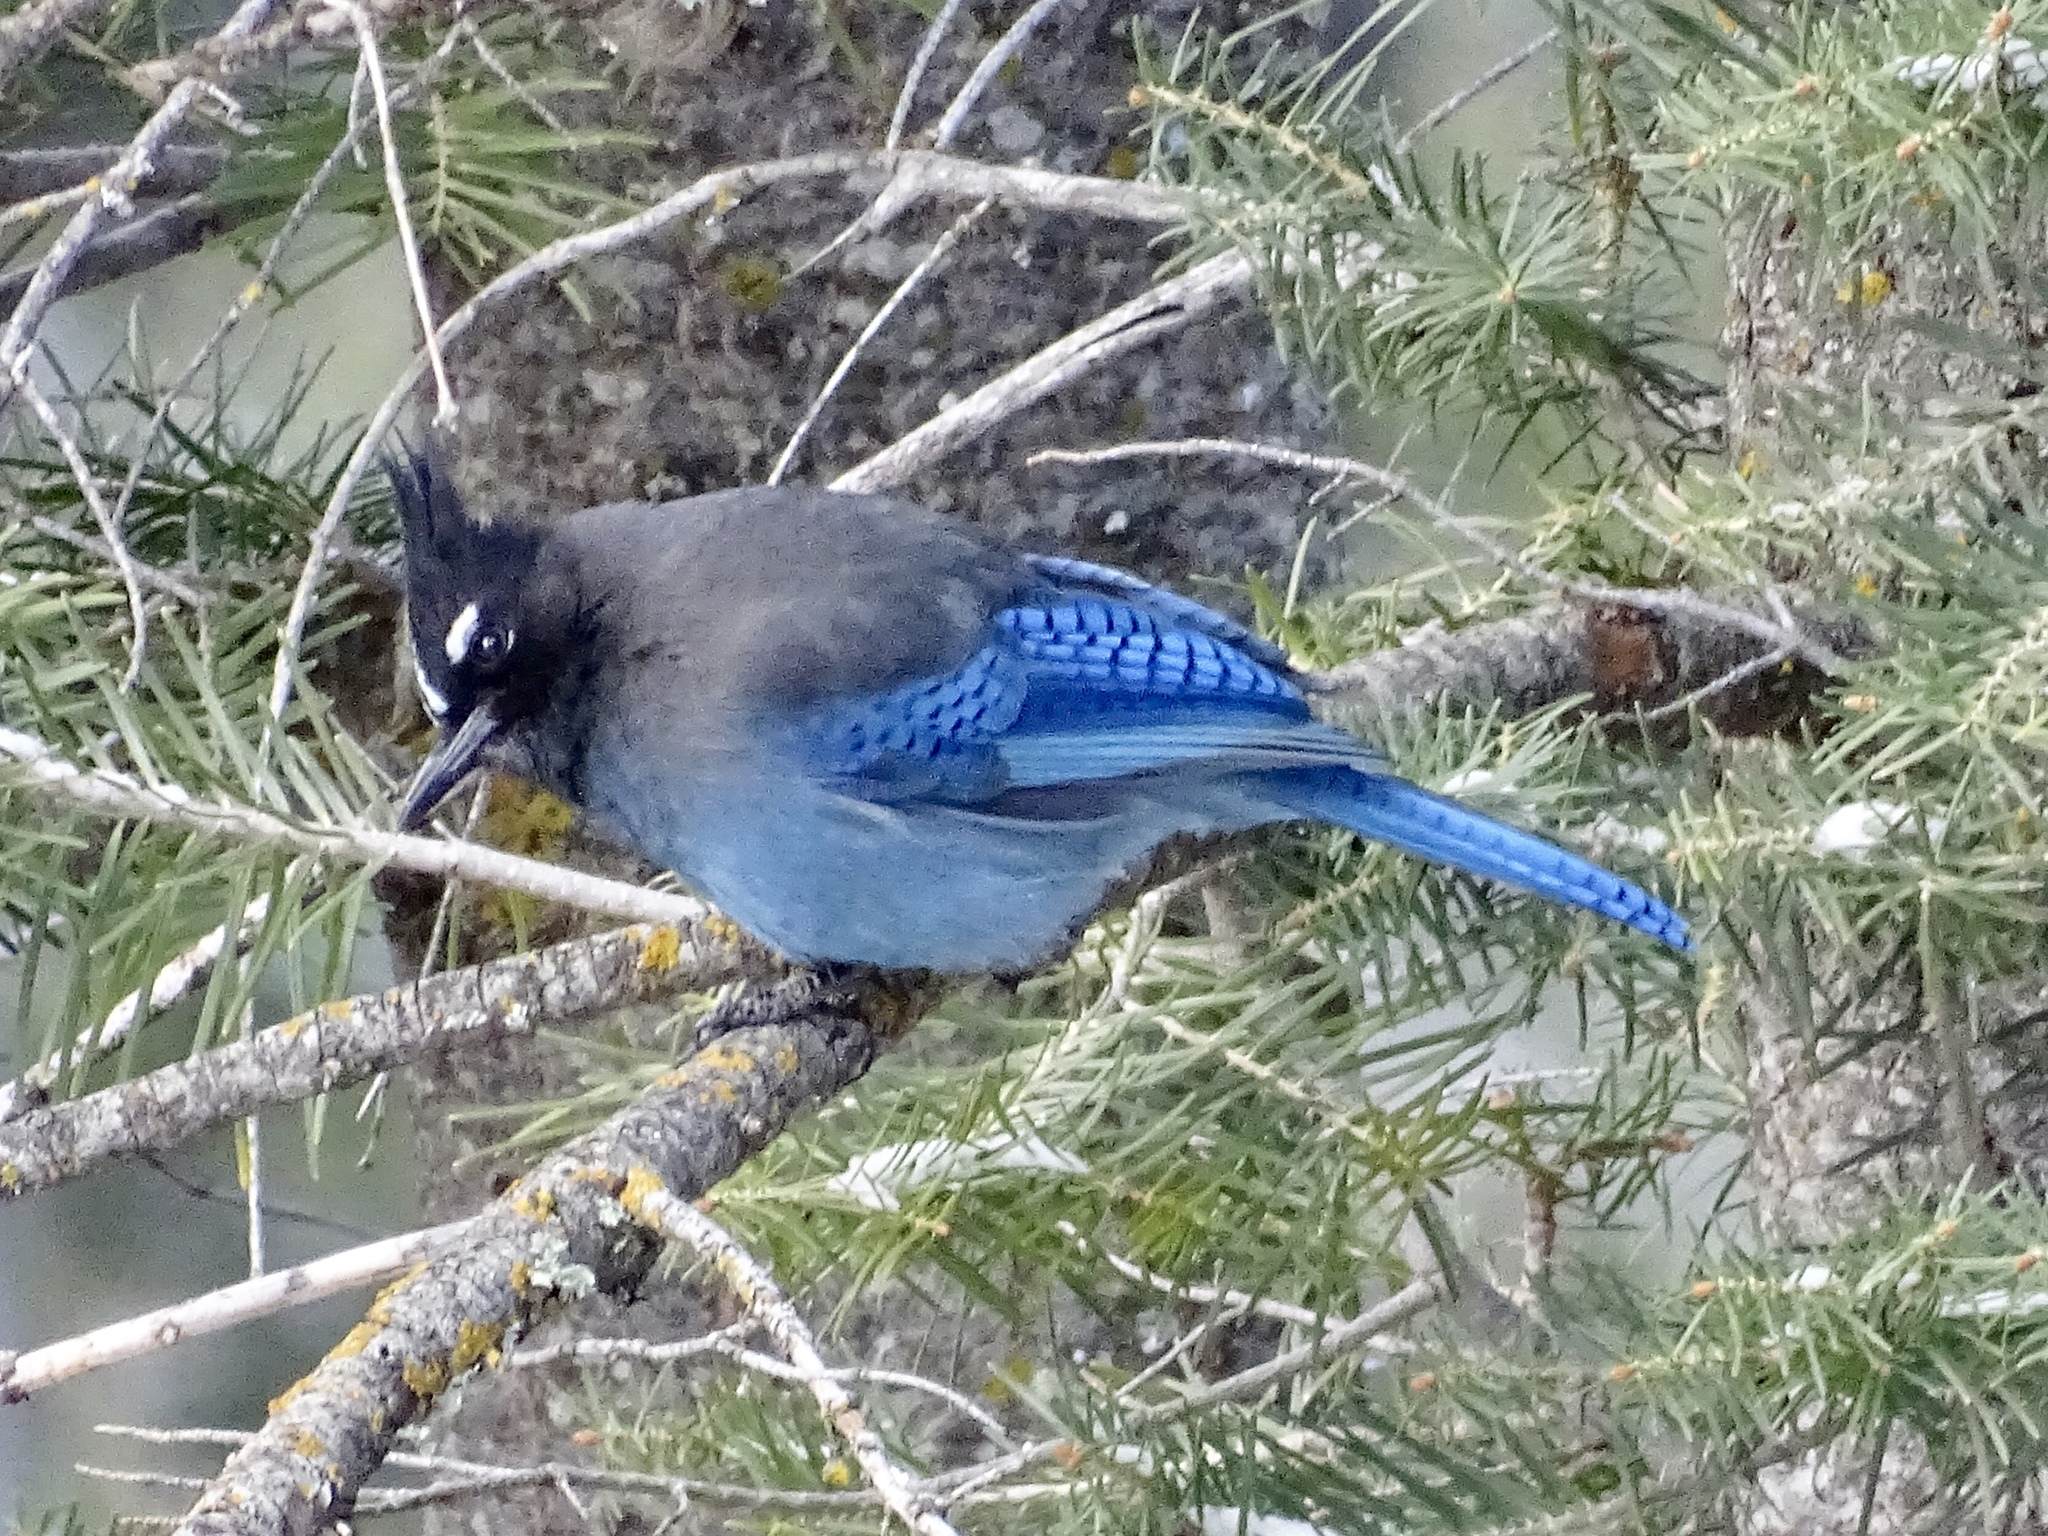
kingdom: Animalia
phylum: Chordata
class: Aves
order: Passeriformes
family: Corvidae
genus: Cyanocitta
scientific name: Cyanocitta stelleri
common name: Steller's jay
